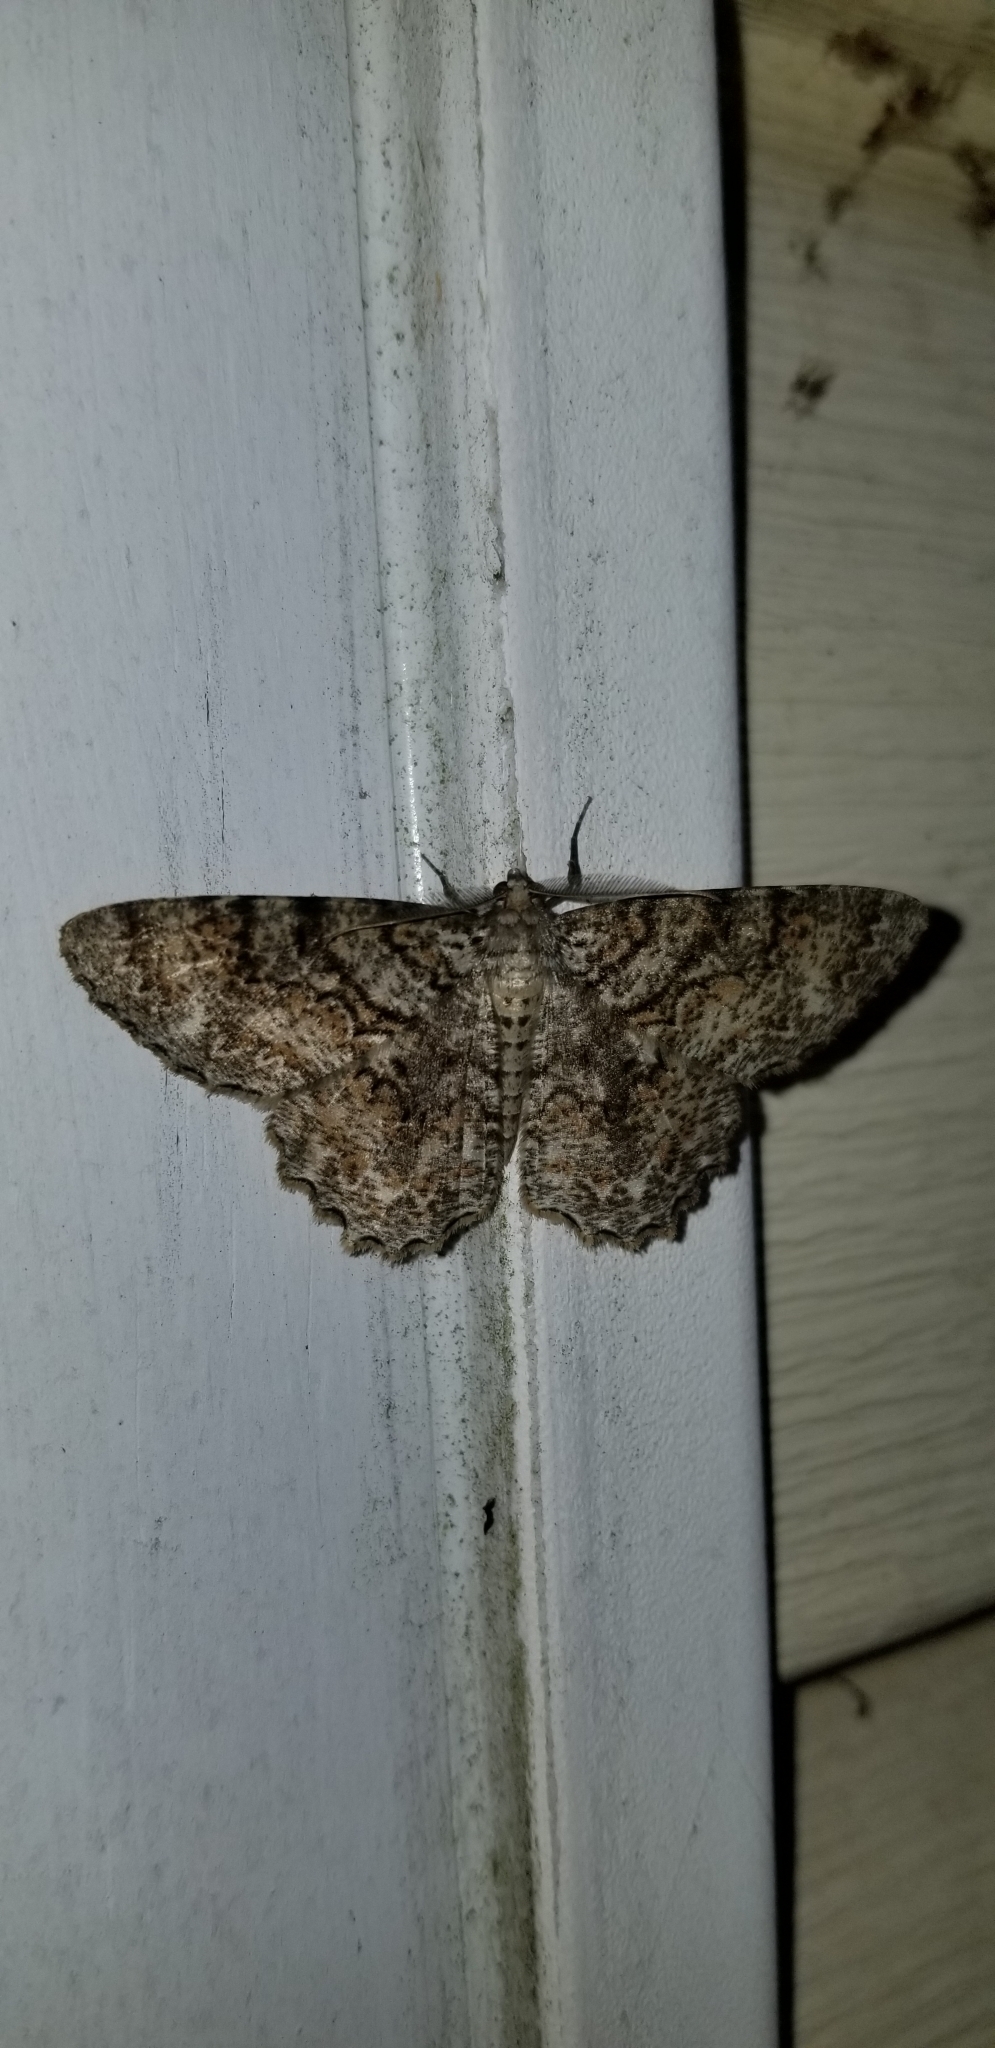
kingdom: Animalia
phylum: Arthropoda
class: Insecta
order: Lepidoptera
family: Geometridae
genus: Epimecis
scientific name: Epimecis hortaria
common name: Tulip-tree beauty
